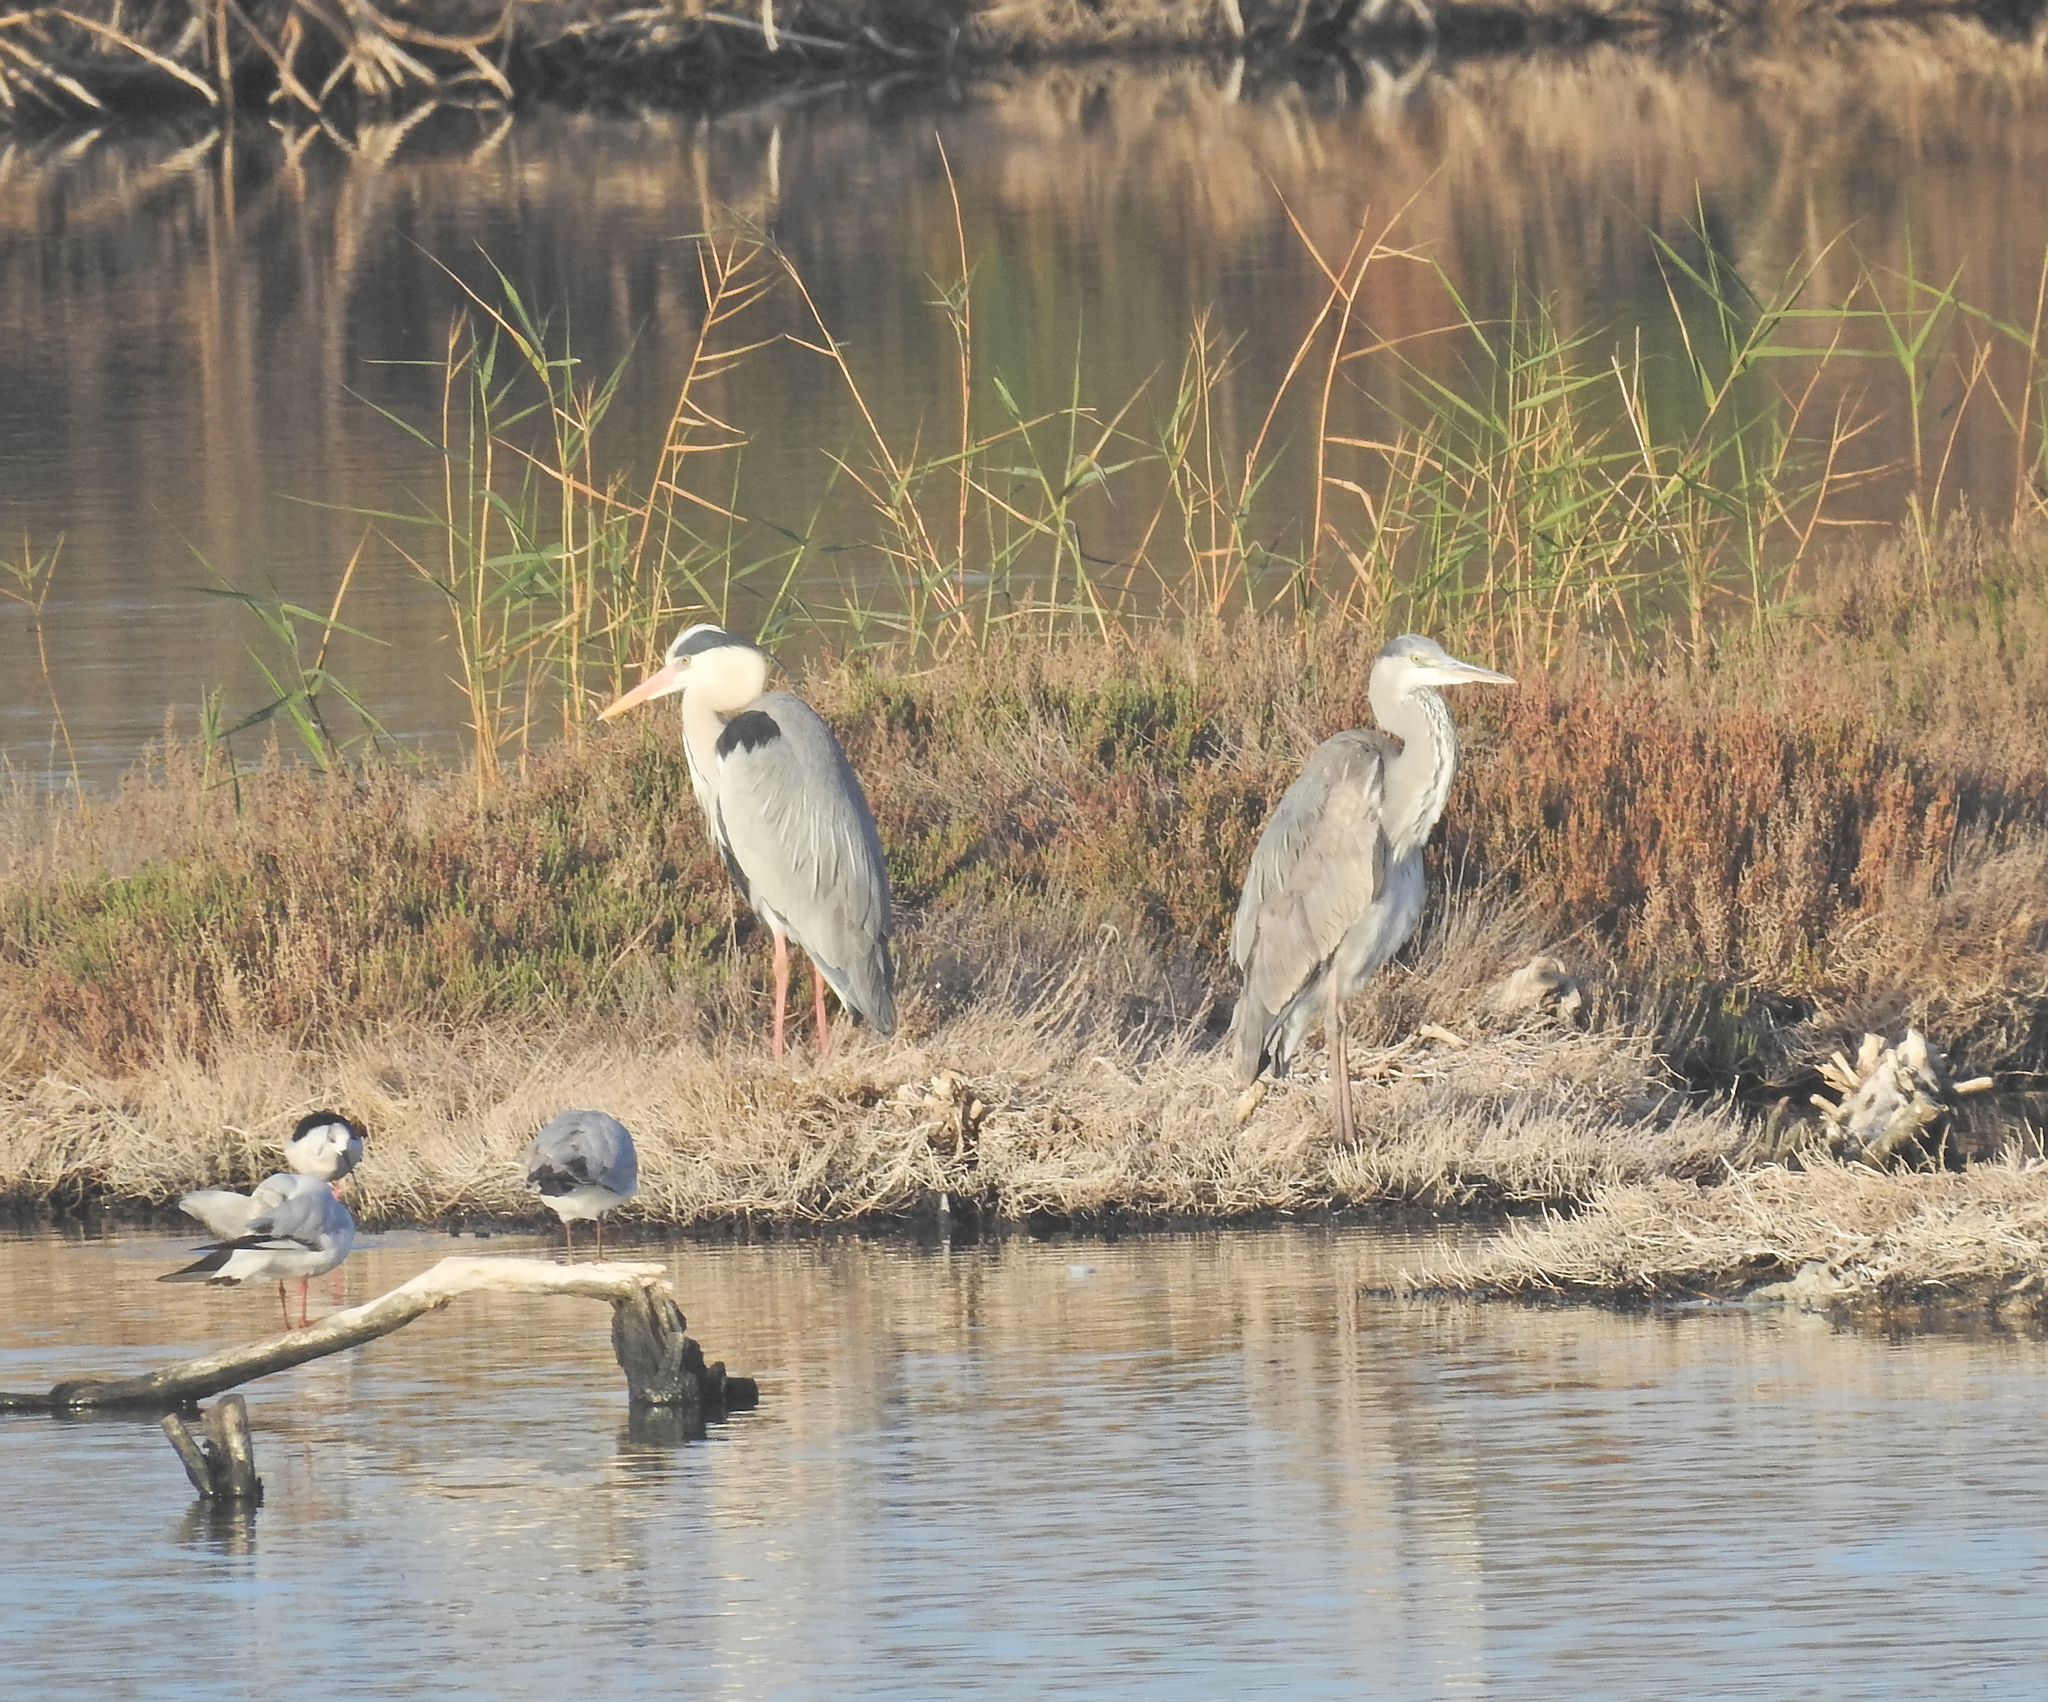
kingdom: Animalia
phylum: Chordata
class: Aves
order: Pelecaniformes
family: Ardeidae
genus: Ardea
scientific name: Ardea cinerea
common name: Grey heron
